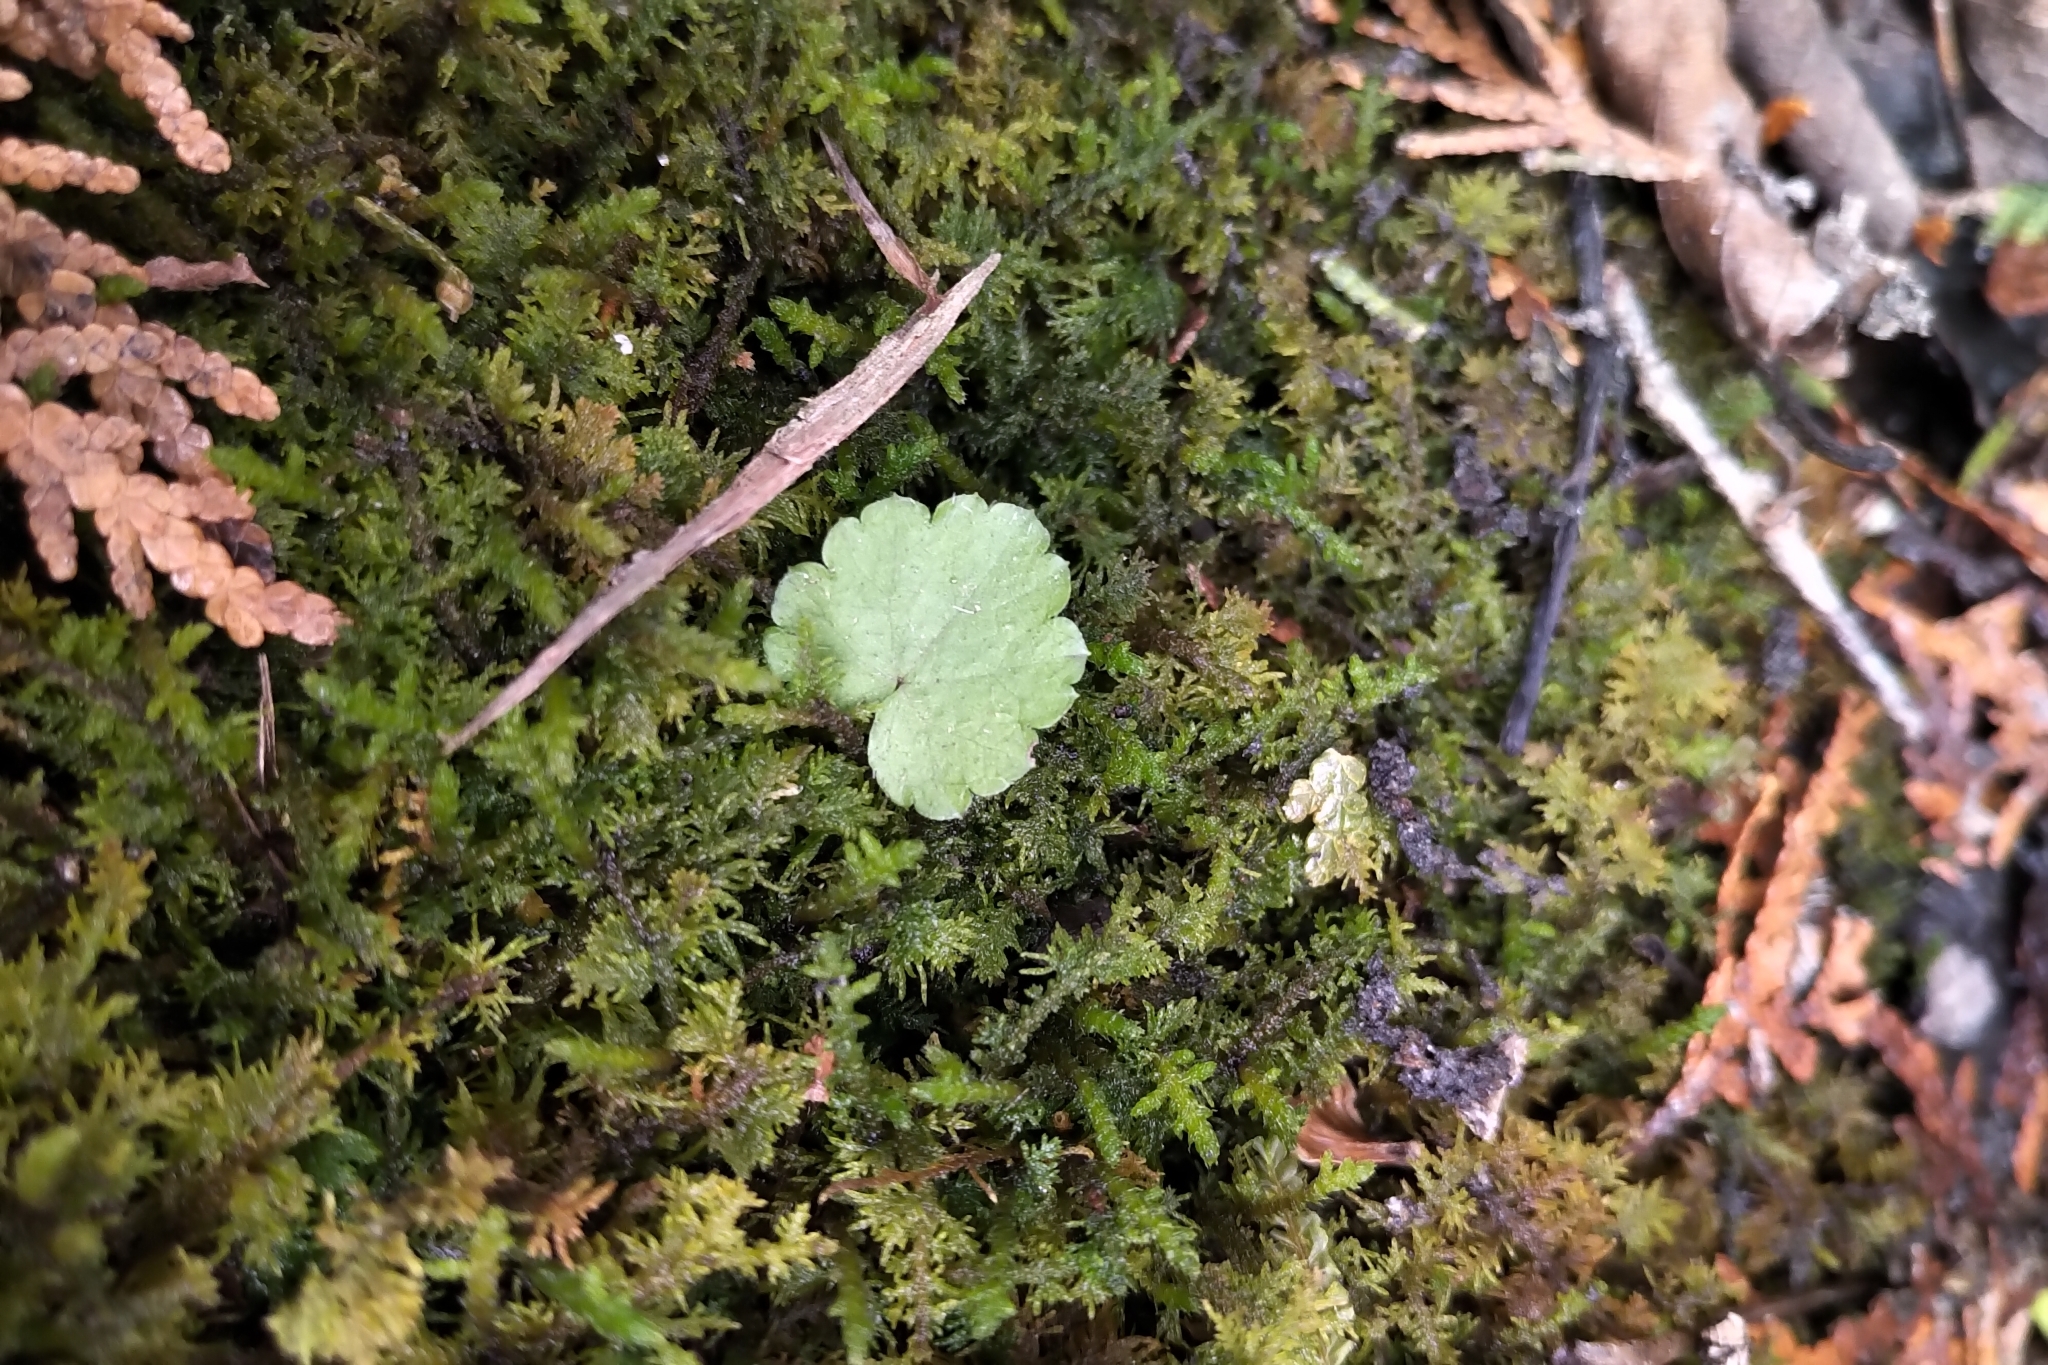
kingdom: Plantae
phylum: Tracheophyta
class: Magnoliopsida
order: Saxifragales
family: Saxifragaceae
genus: Mitella
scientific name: Mitella nuda
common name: Bare-stemmed bishop's-cap
